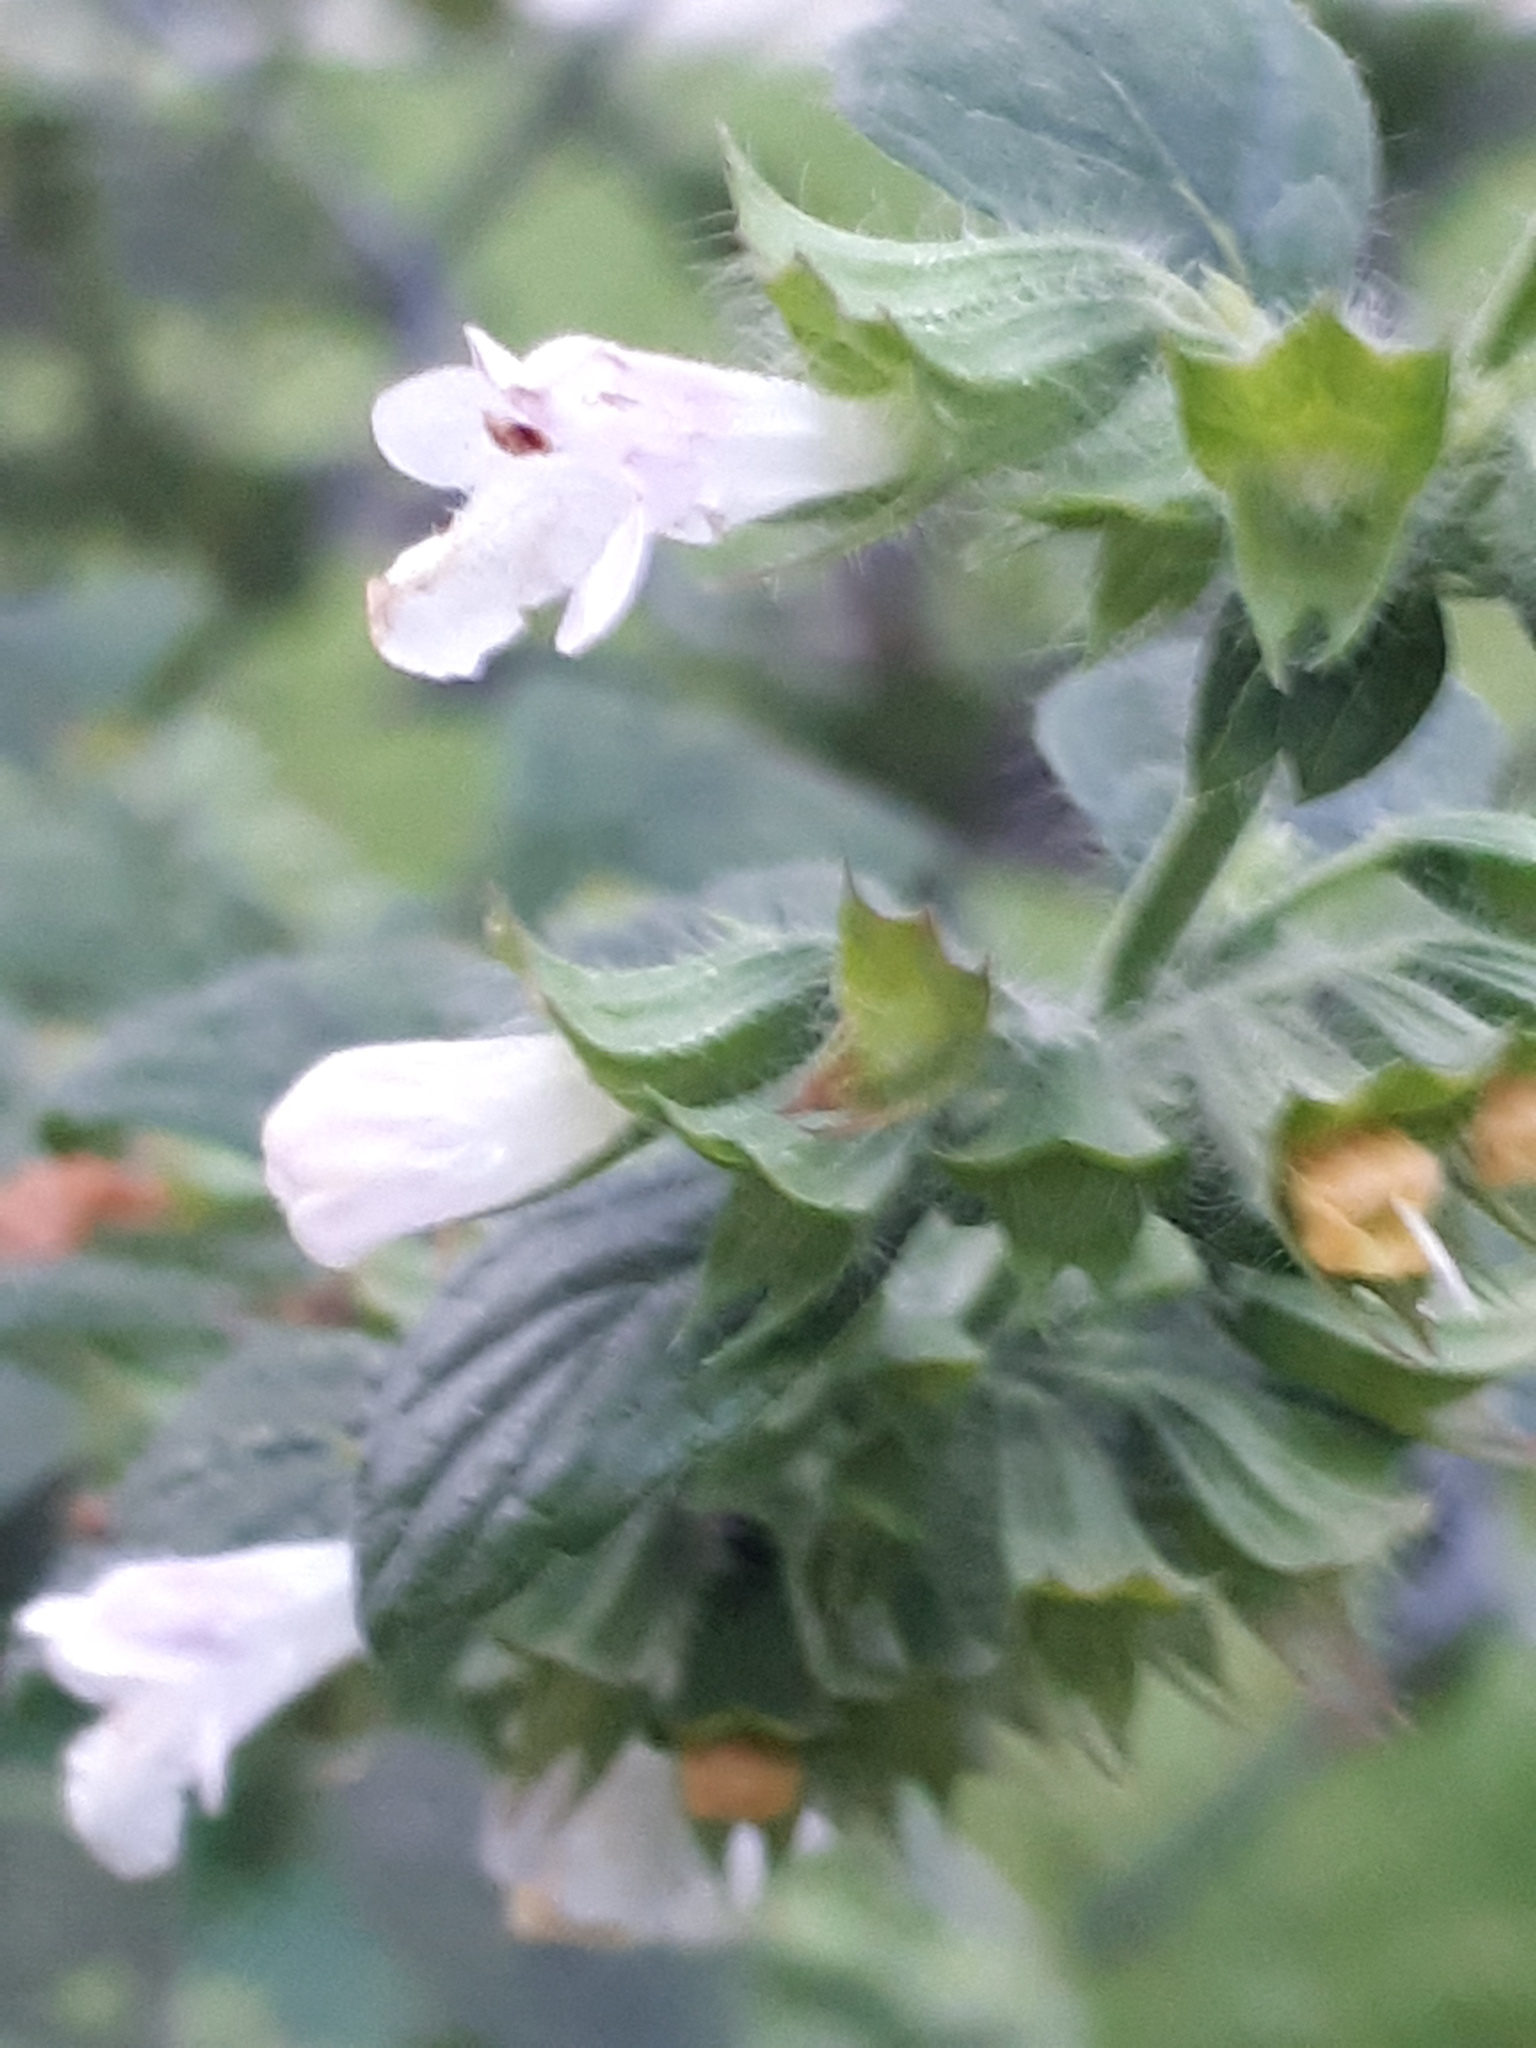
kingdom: Plantae
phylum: Tracheophyta
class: Magnoliopsida
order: Lamiales
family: Lamiaceae
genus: Melissa
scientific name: Melissa officinalis
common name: Balm
